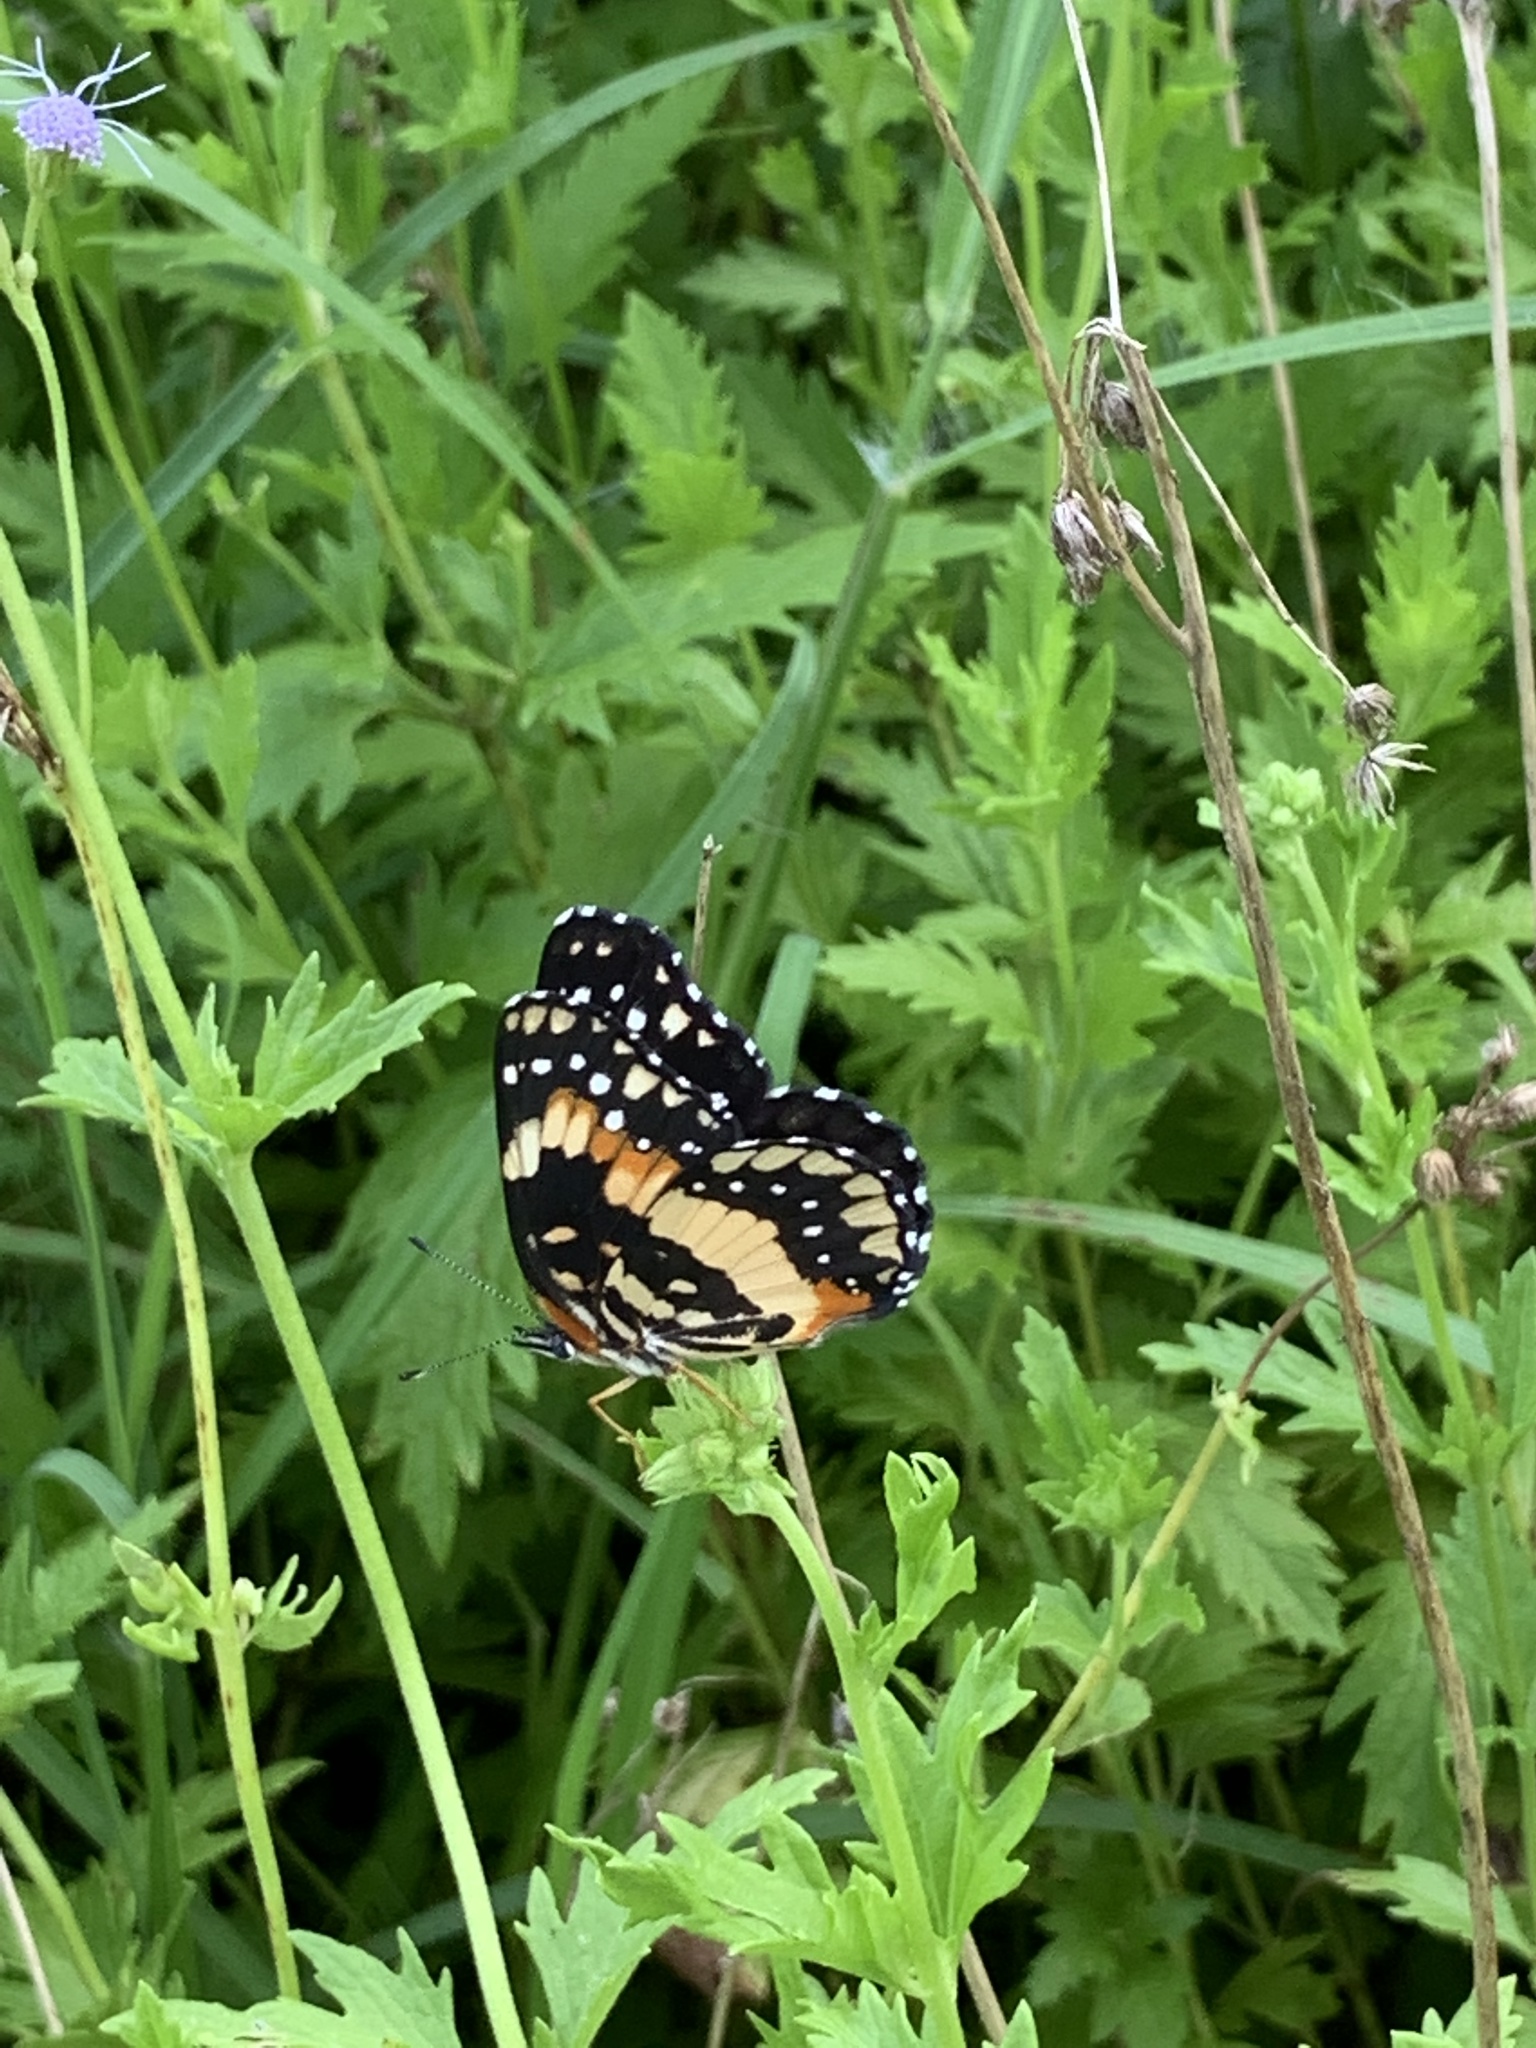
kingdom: Animalia
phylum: Arthropoda
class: Insecta
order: Lepidoptera
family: Nymphalidae
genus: Chlosyne
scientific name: Chlosyne lacinia
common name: Bordered patch
